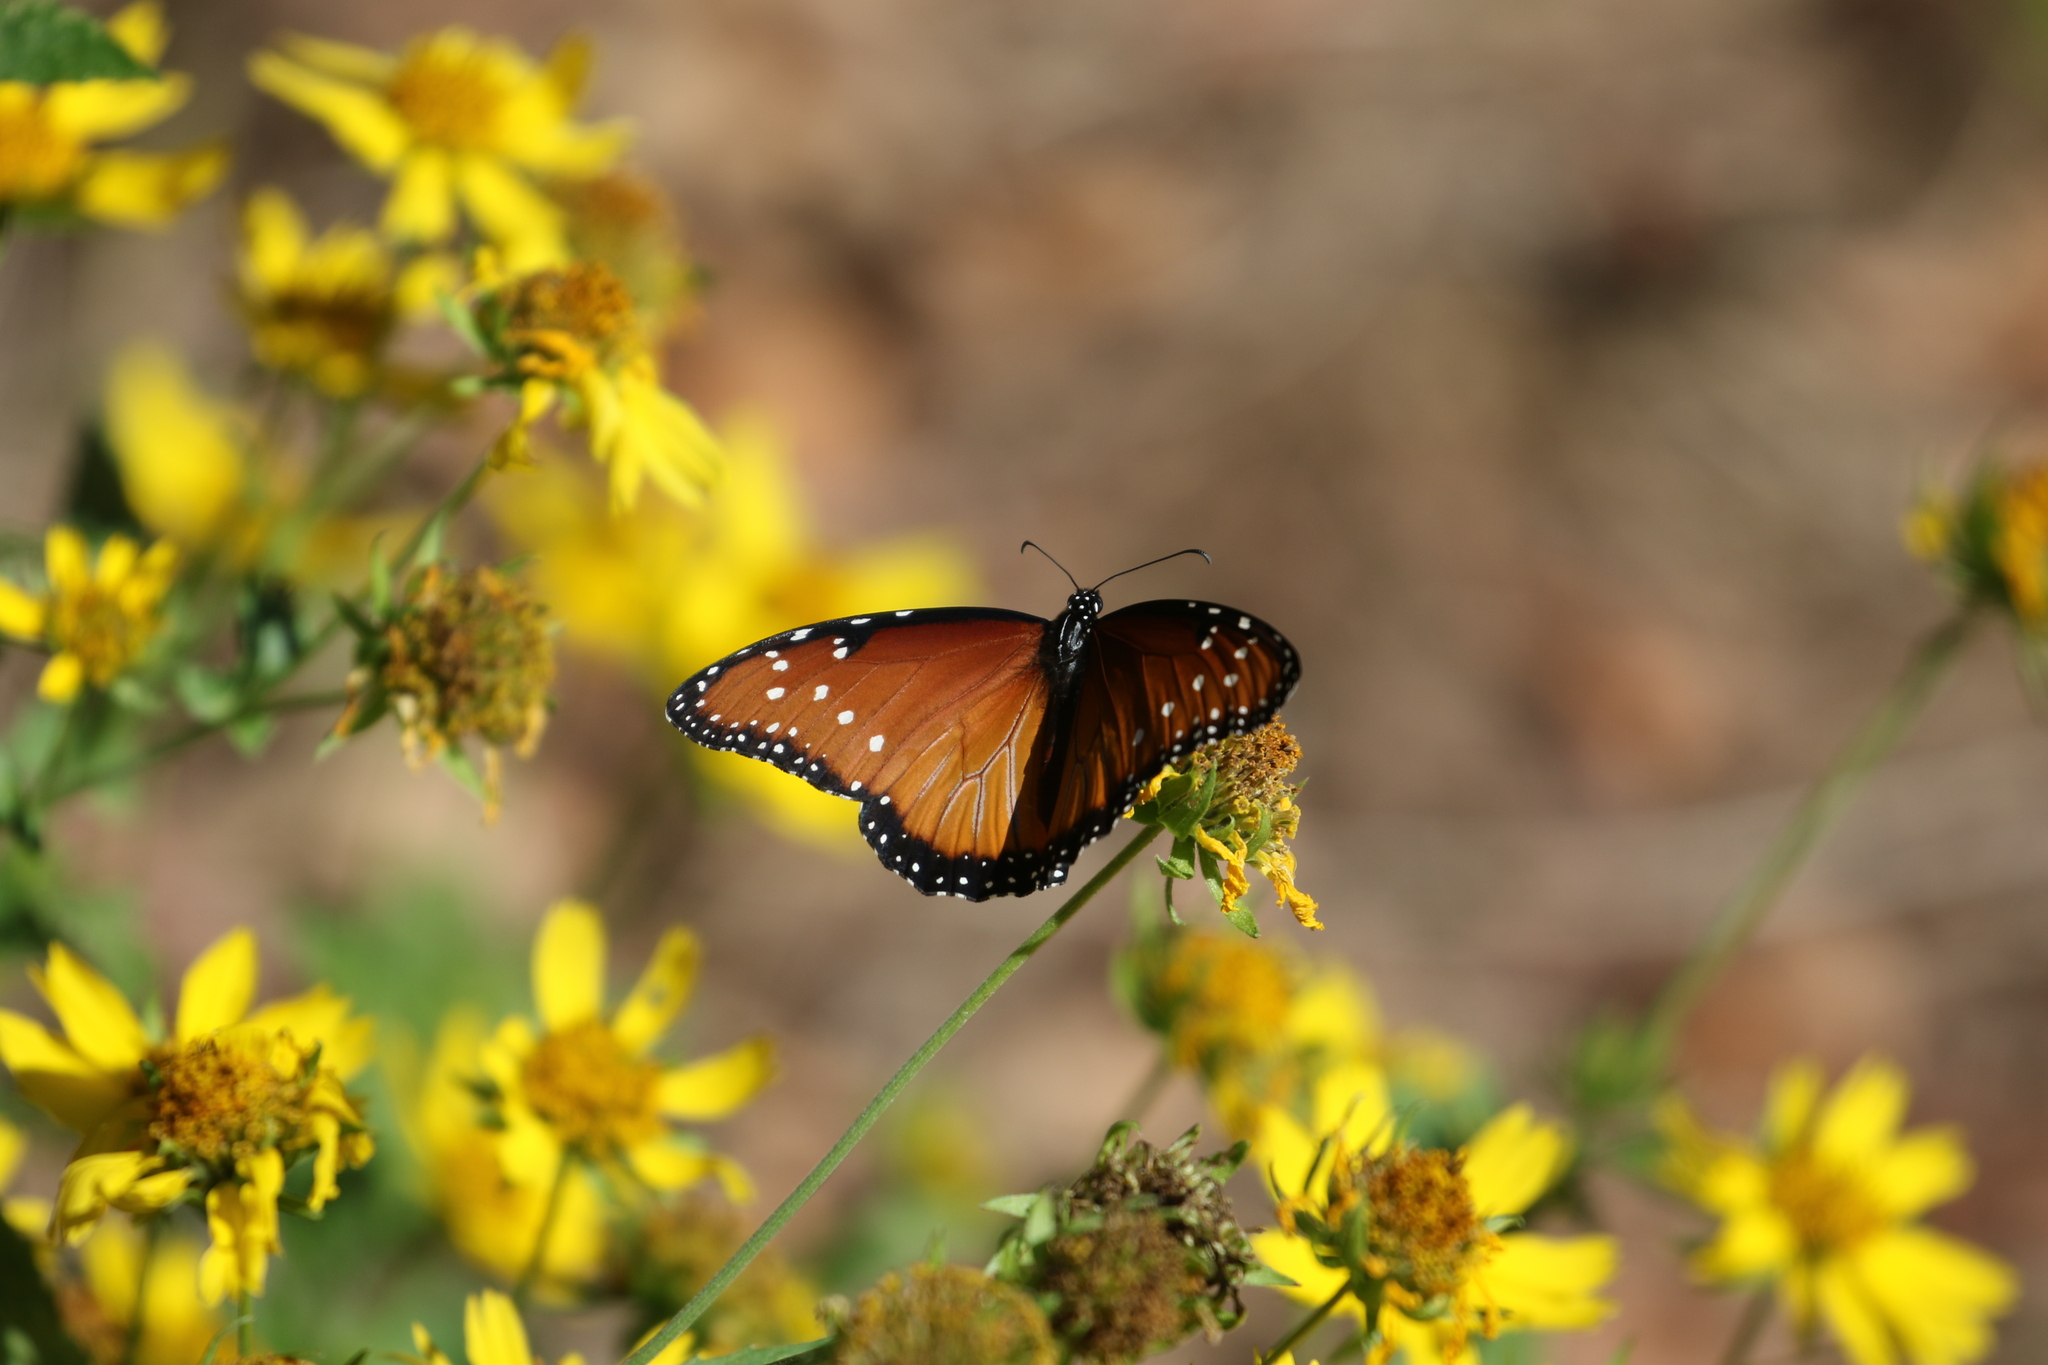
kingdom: Animalia
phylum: Arthropoda
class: Insecta
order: Lepidoptera
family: Nymphalidae
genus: Danaus
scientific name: Danaus gilippus
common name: Queen
